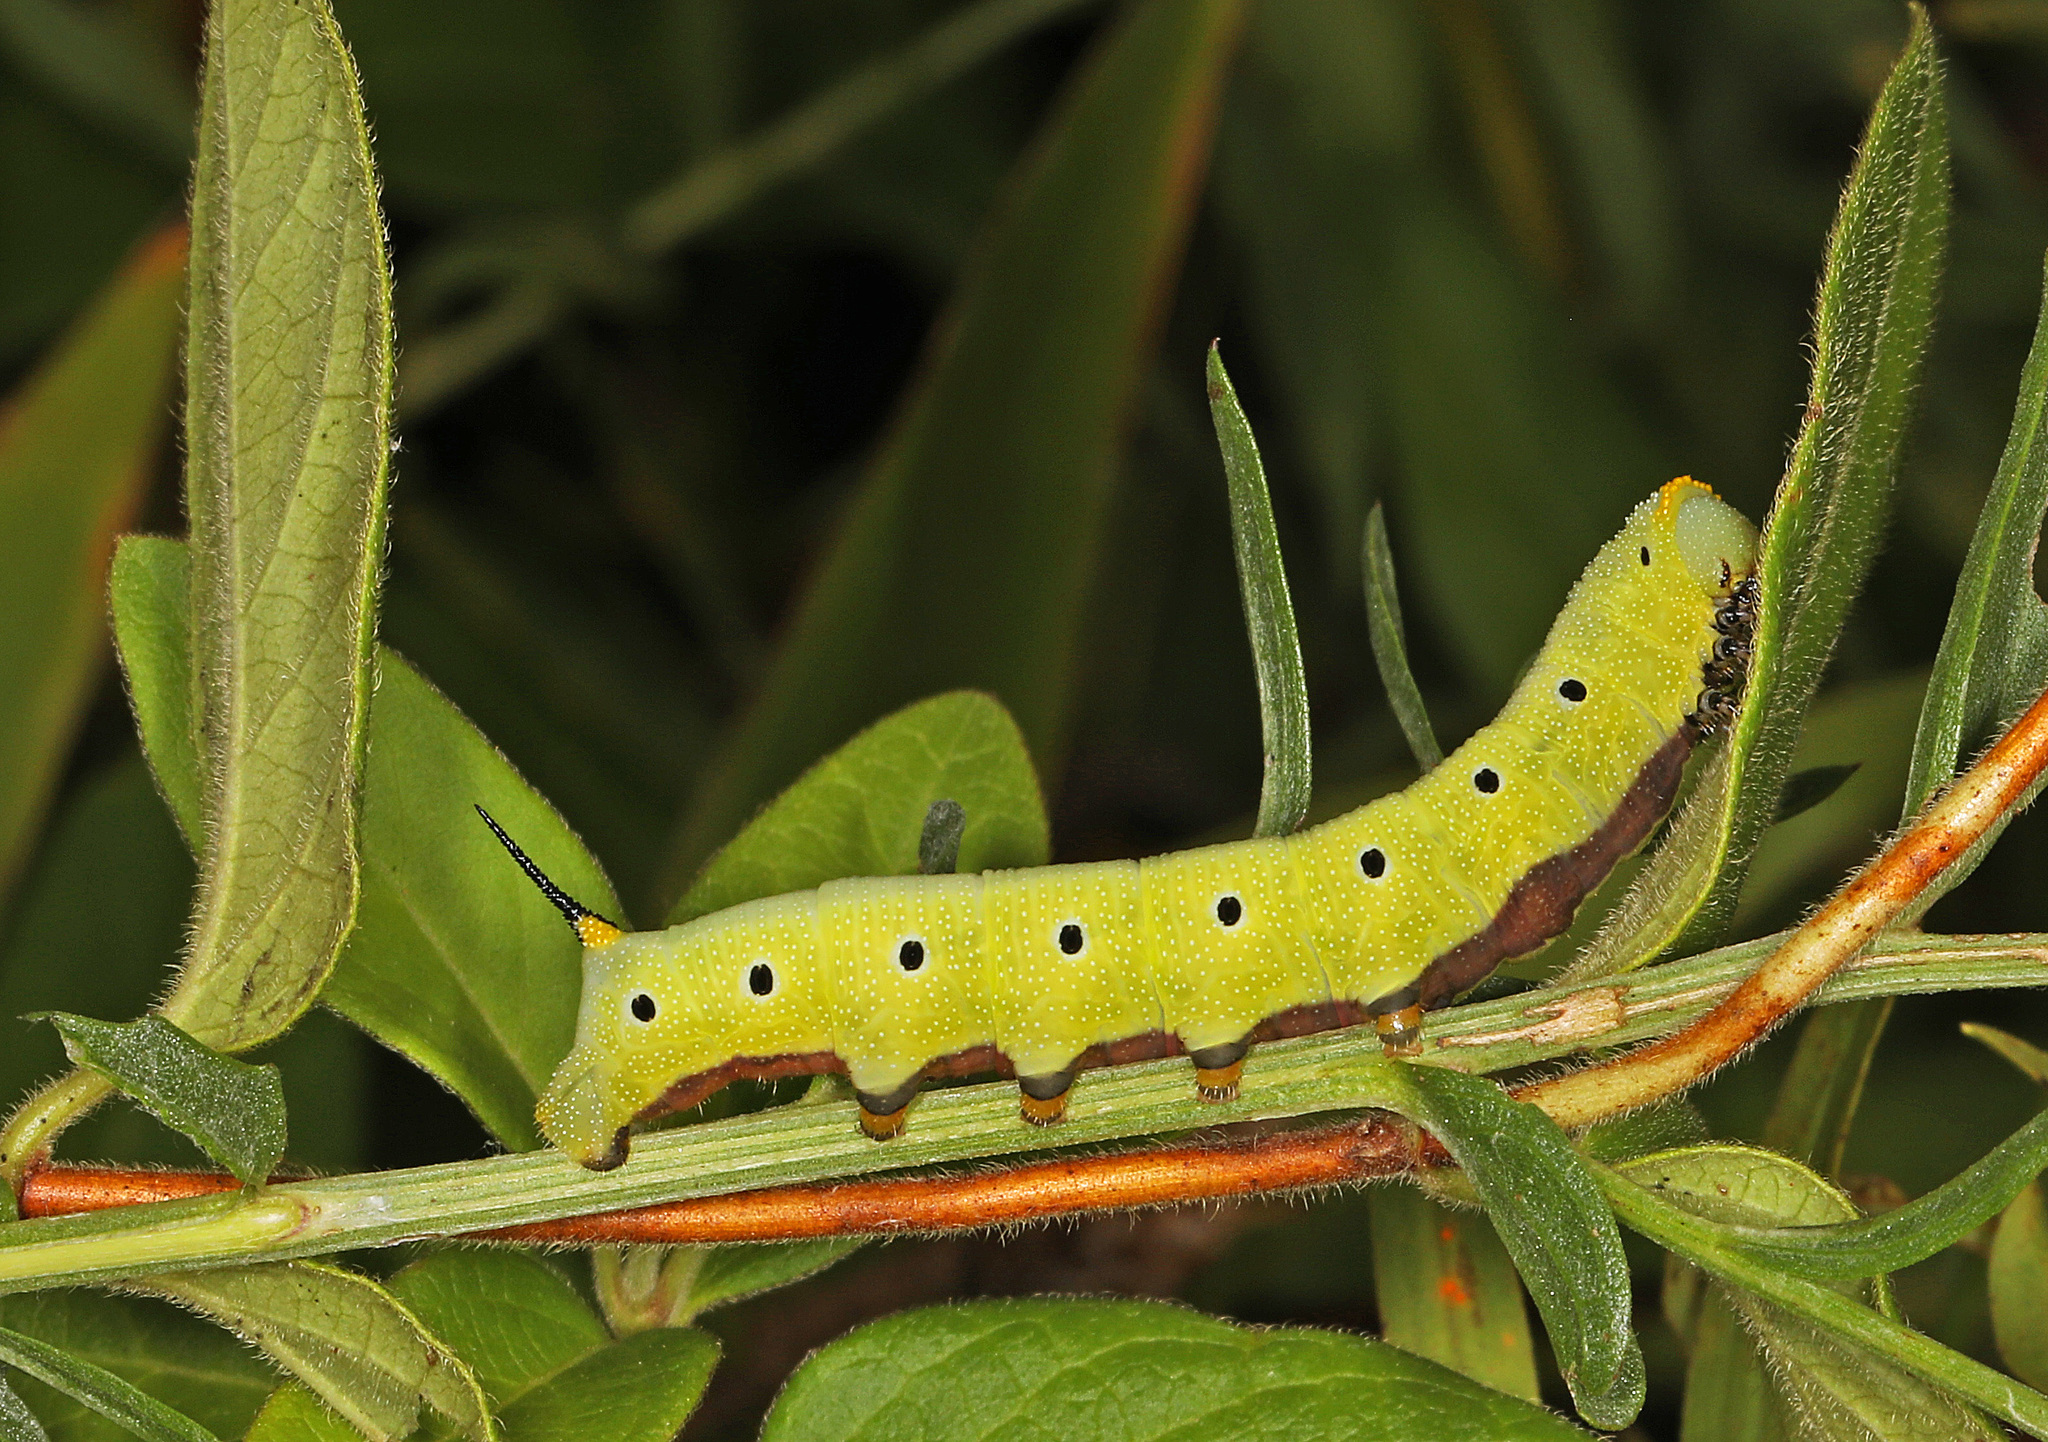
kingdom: Animalia
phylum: Arthropoda
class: Insecta
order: Lepidoptera
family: Sphingidae
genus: Hemaris
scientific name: Hemaris diffinis
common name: Bumblebee moth
